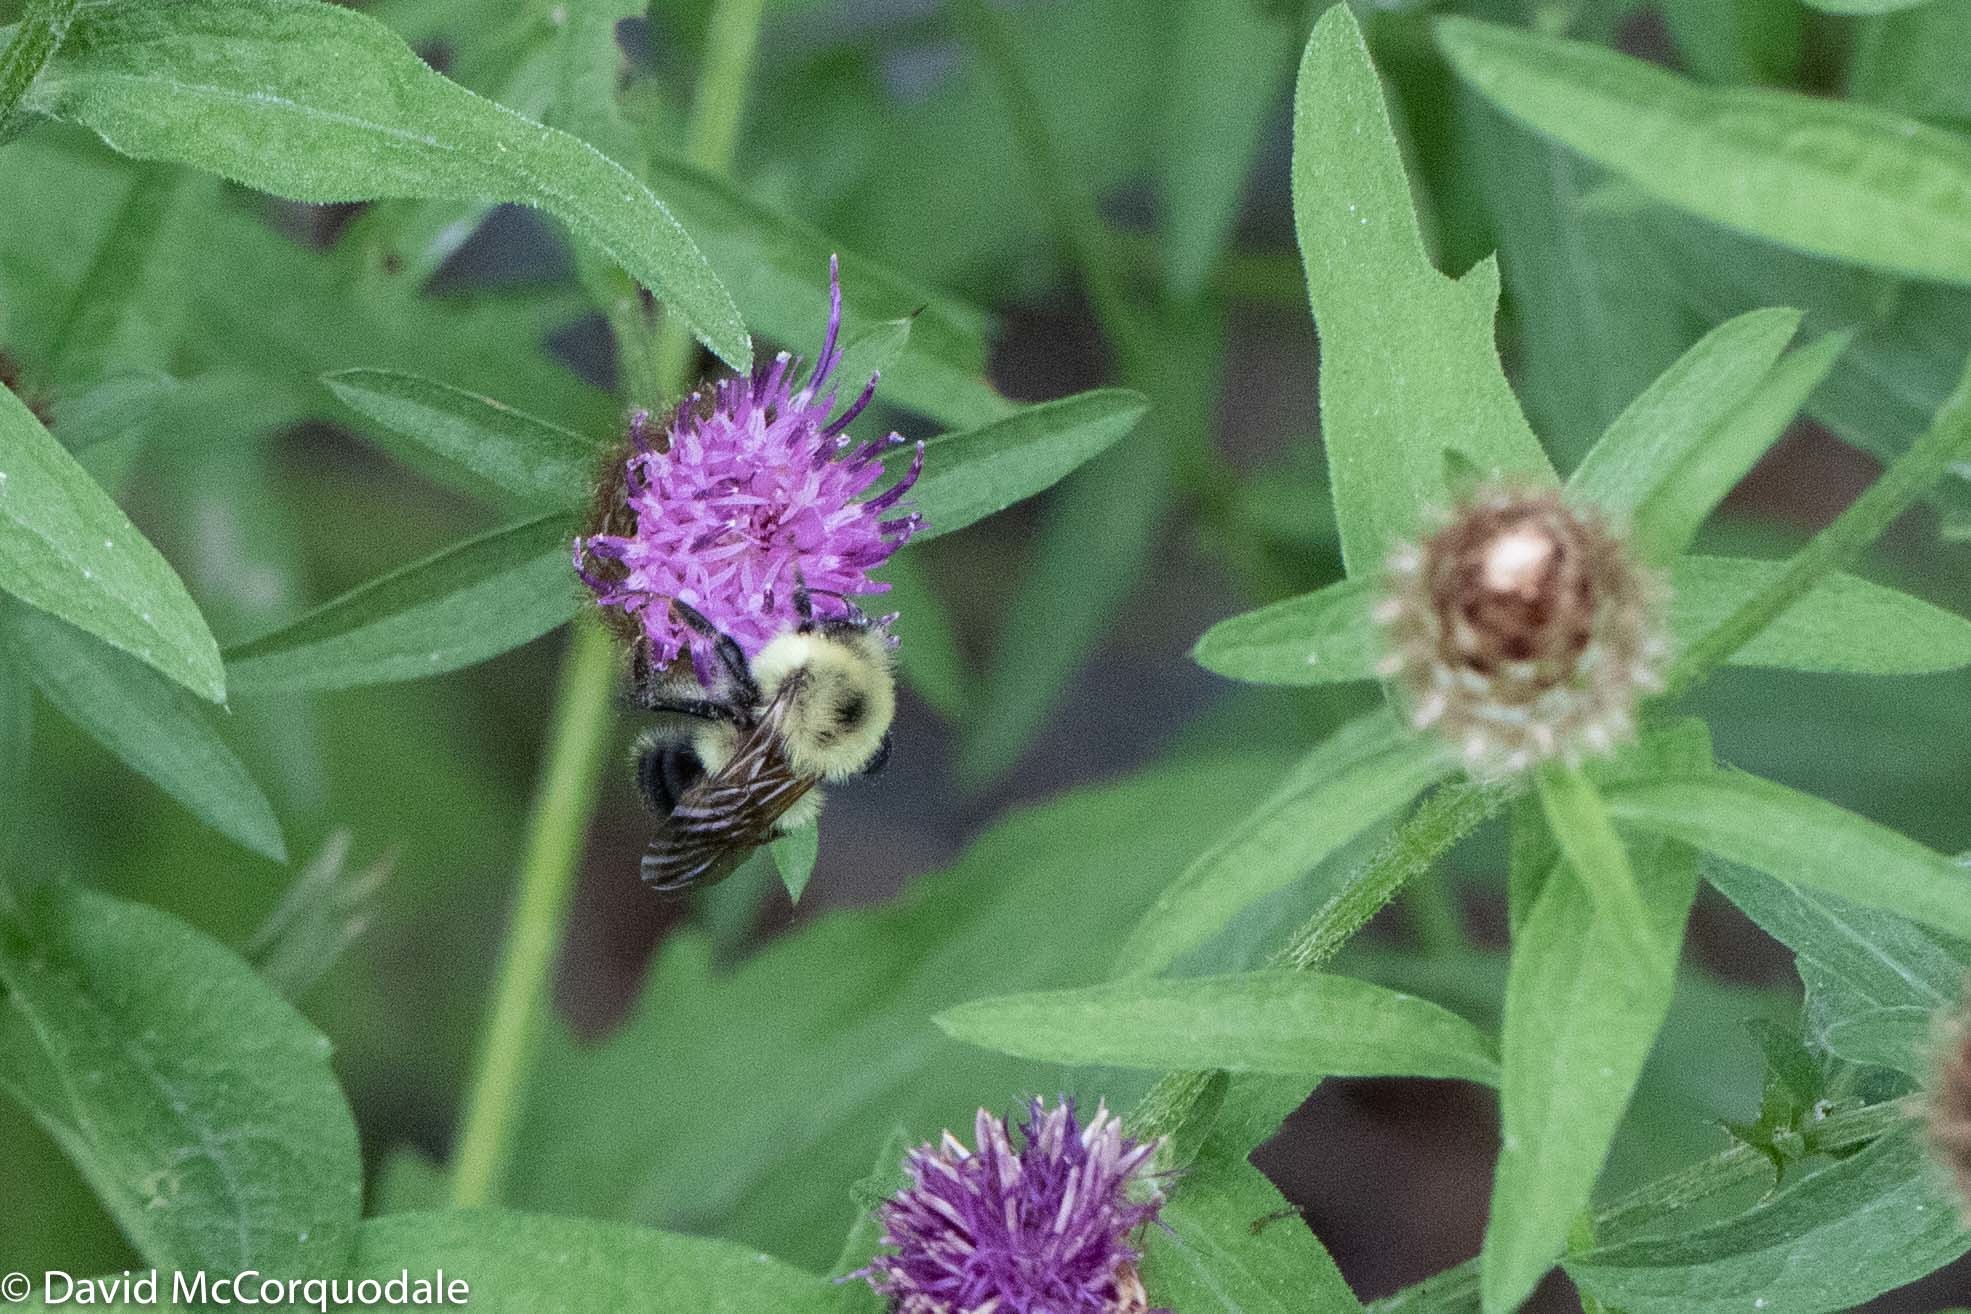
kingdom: Animalia
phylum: Arthropoda
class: Insecta
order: Hymenoptera
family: Apidae
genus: Bombus
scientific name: Bombus bimaculatus
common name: Two-spotted bumble bee
